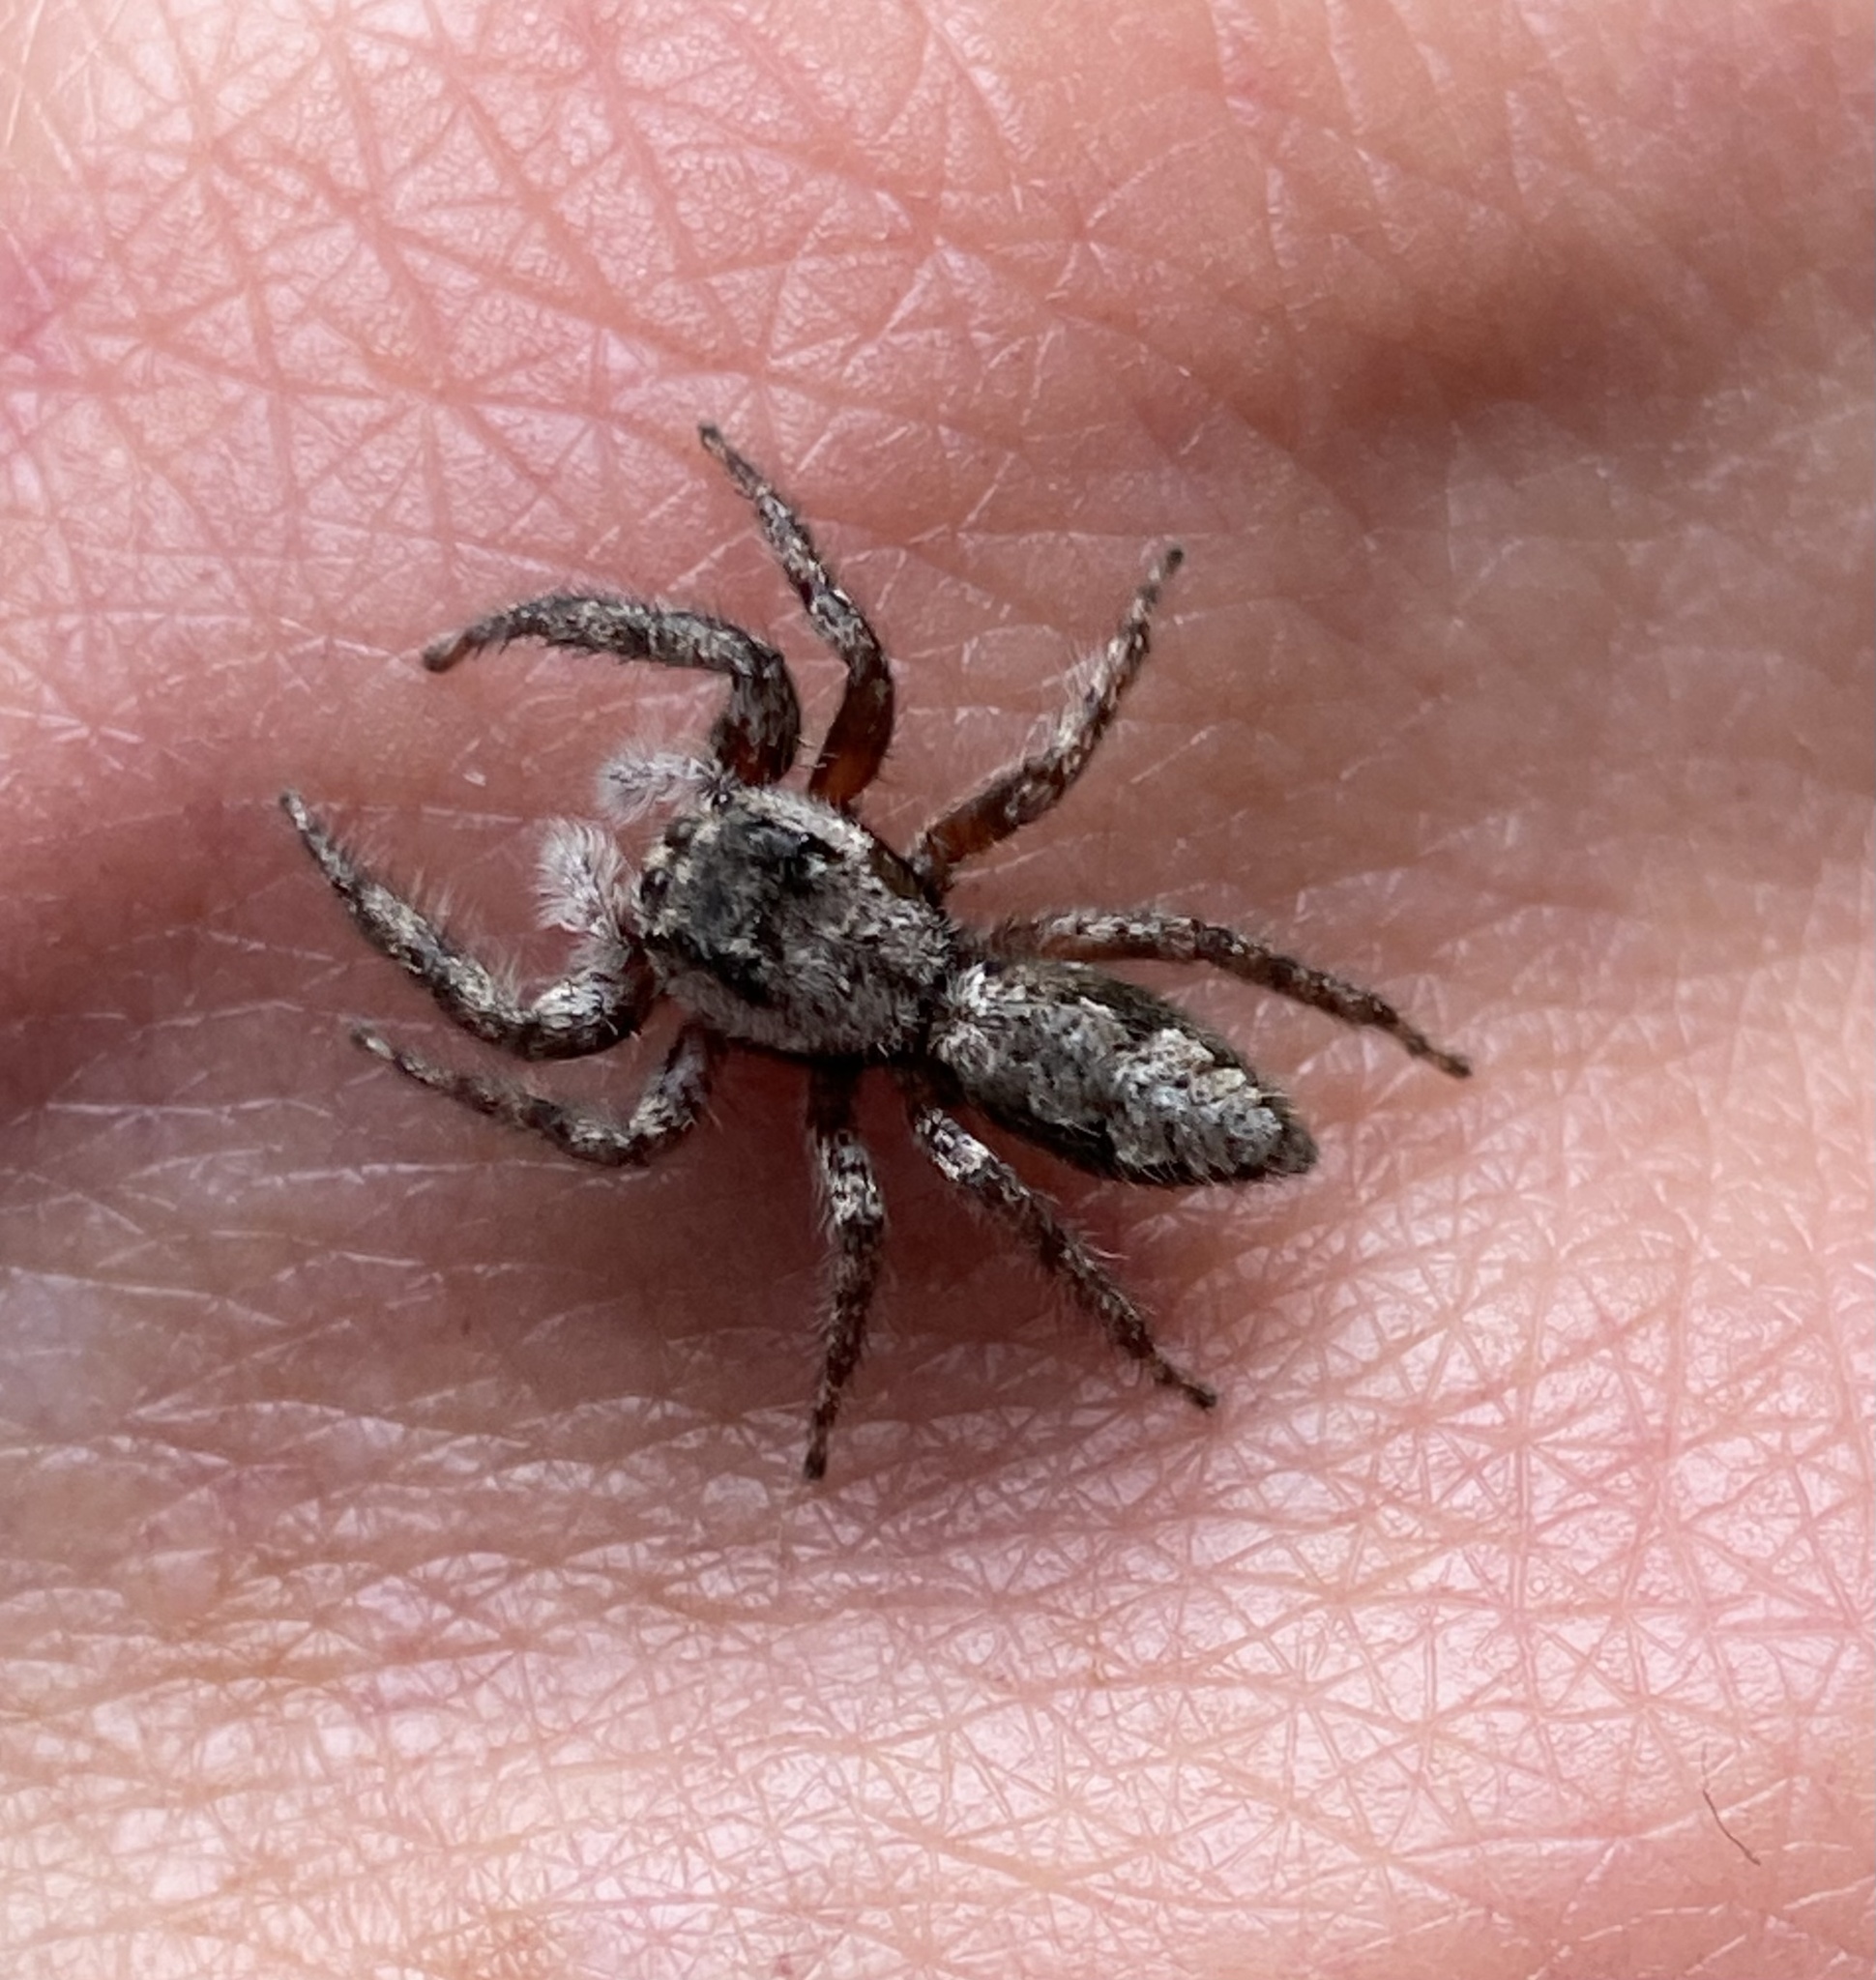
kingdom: Animalia
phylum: Arthropoda
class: Arachnida
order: Araneae
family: Salticidae
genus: Platycryptus
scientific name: Platycryptus undatus
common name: Tan jumping spider
